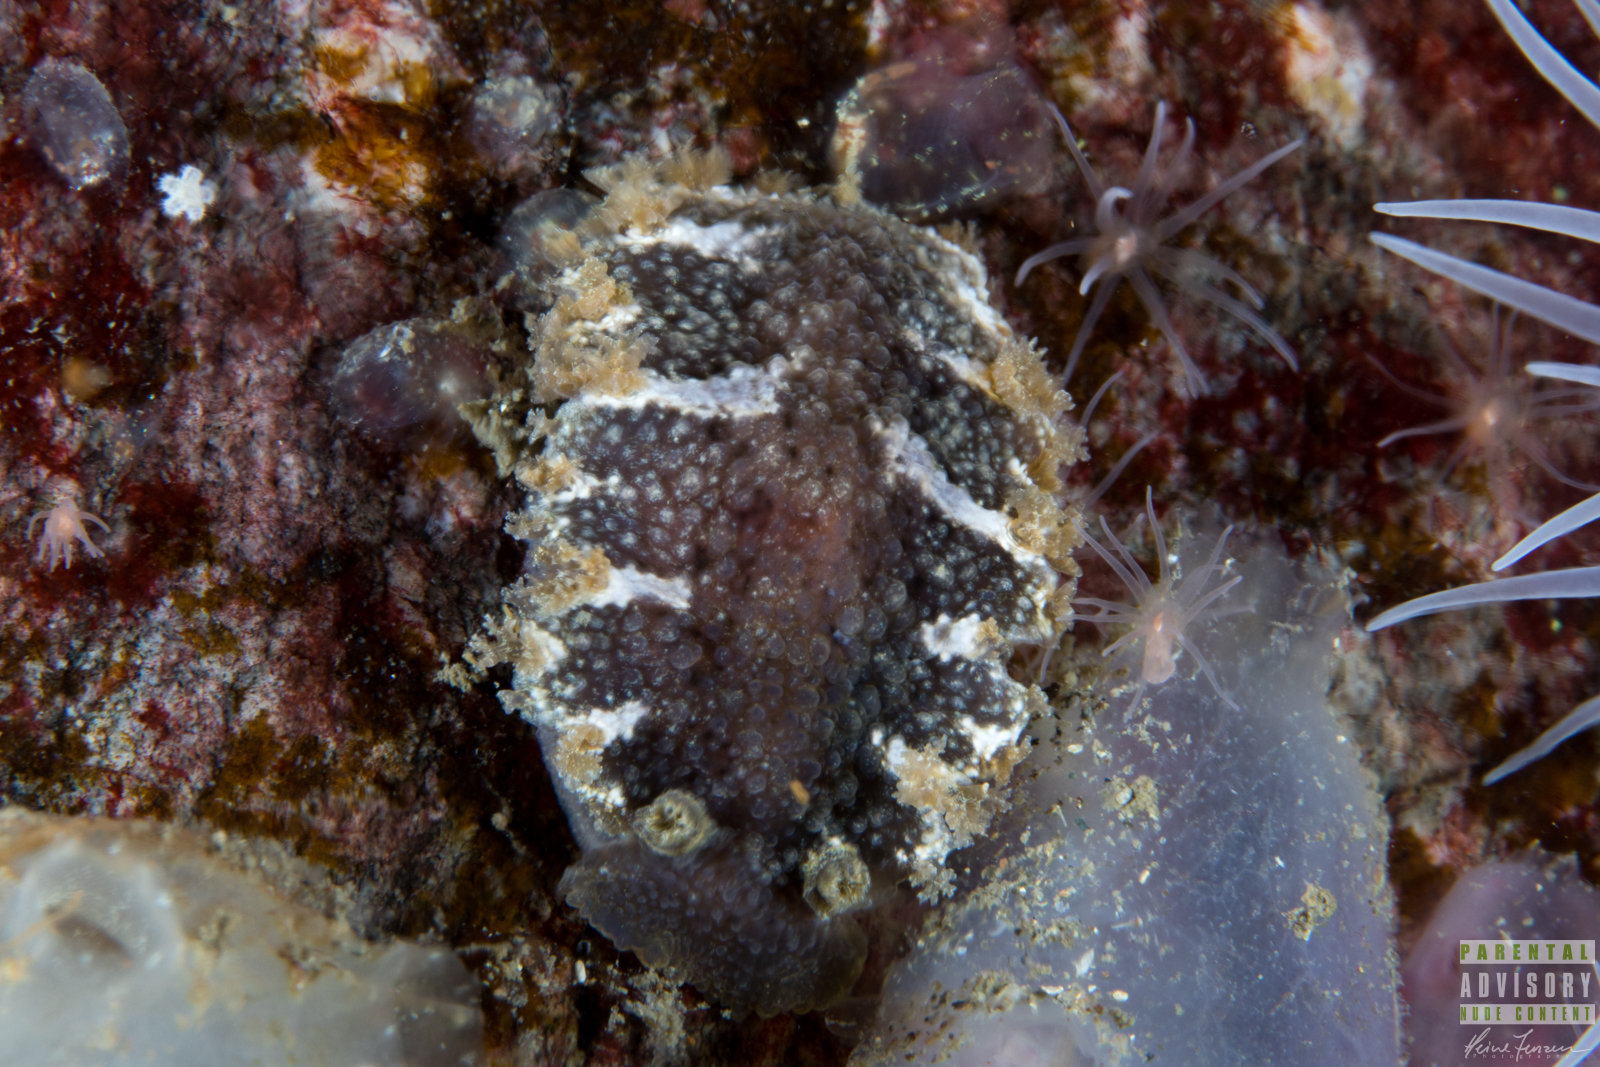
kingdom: Animalia
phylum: Mollusca
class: Gastropoda
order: Nudibranchia
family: Tritoniidae
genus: Tritonia
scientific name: Tritonia hombergii
